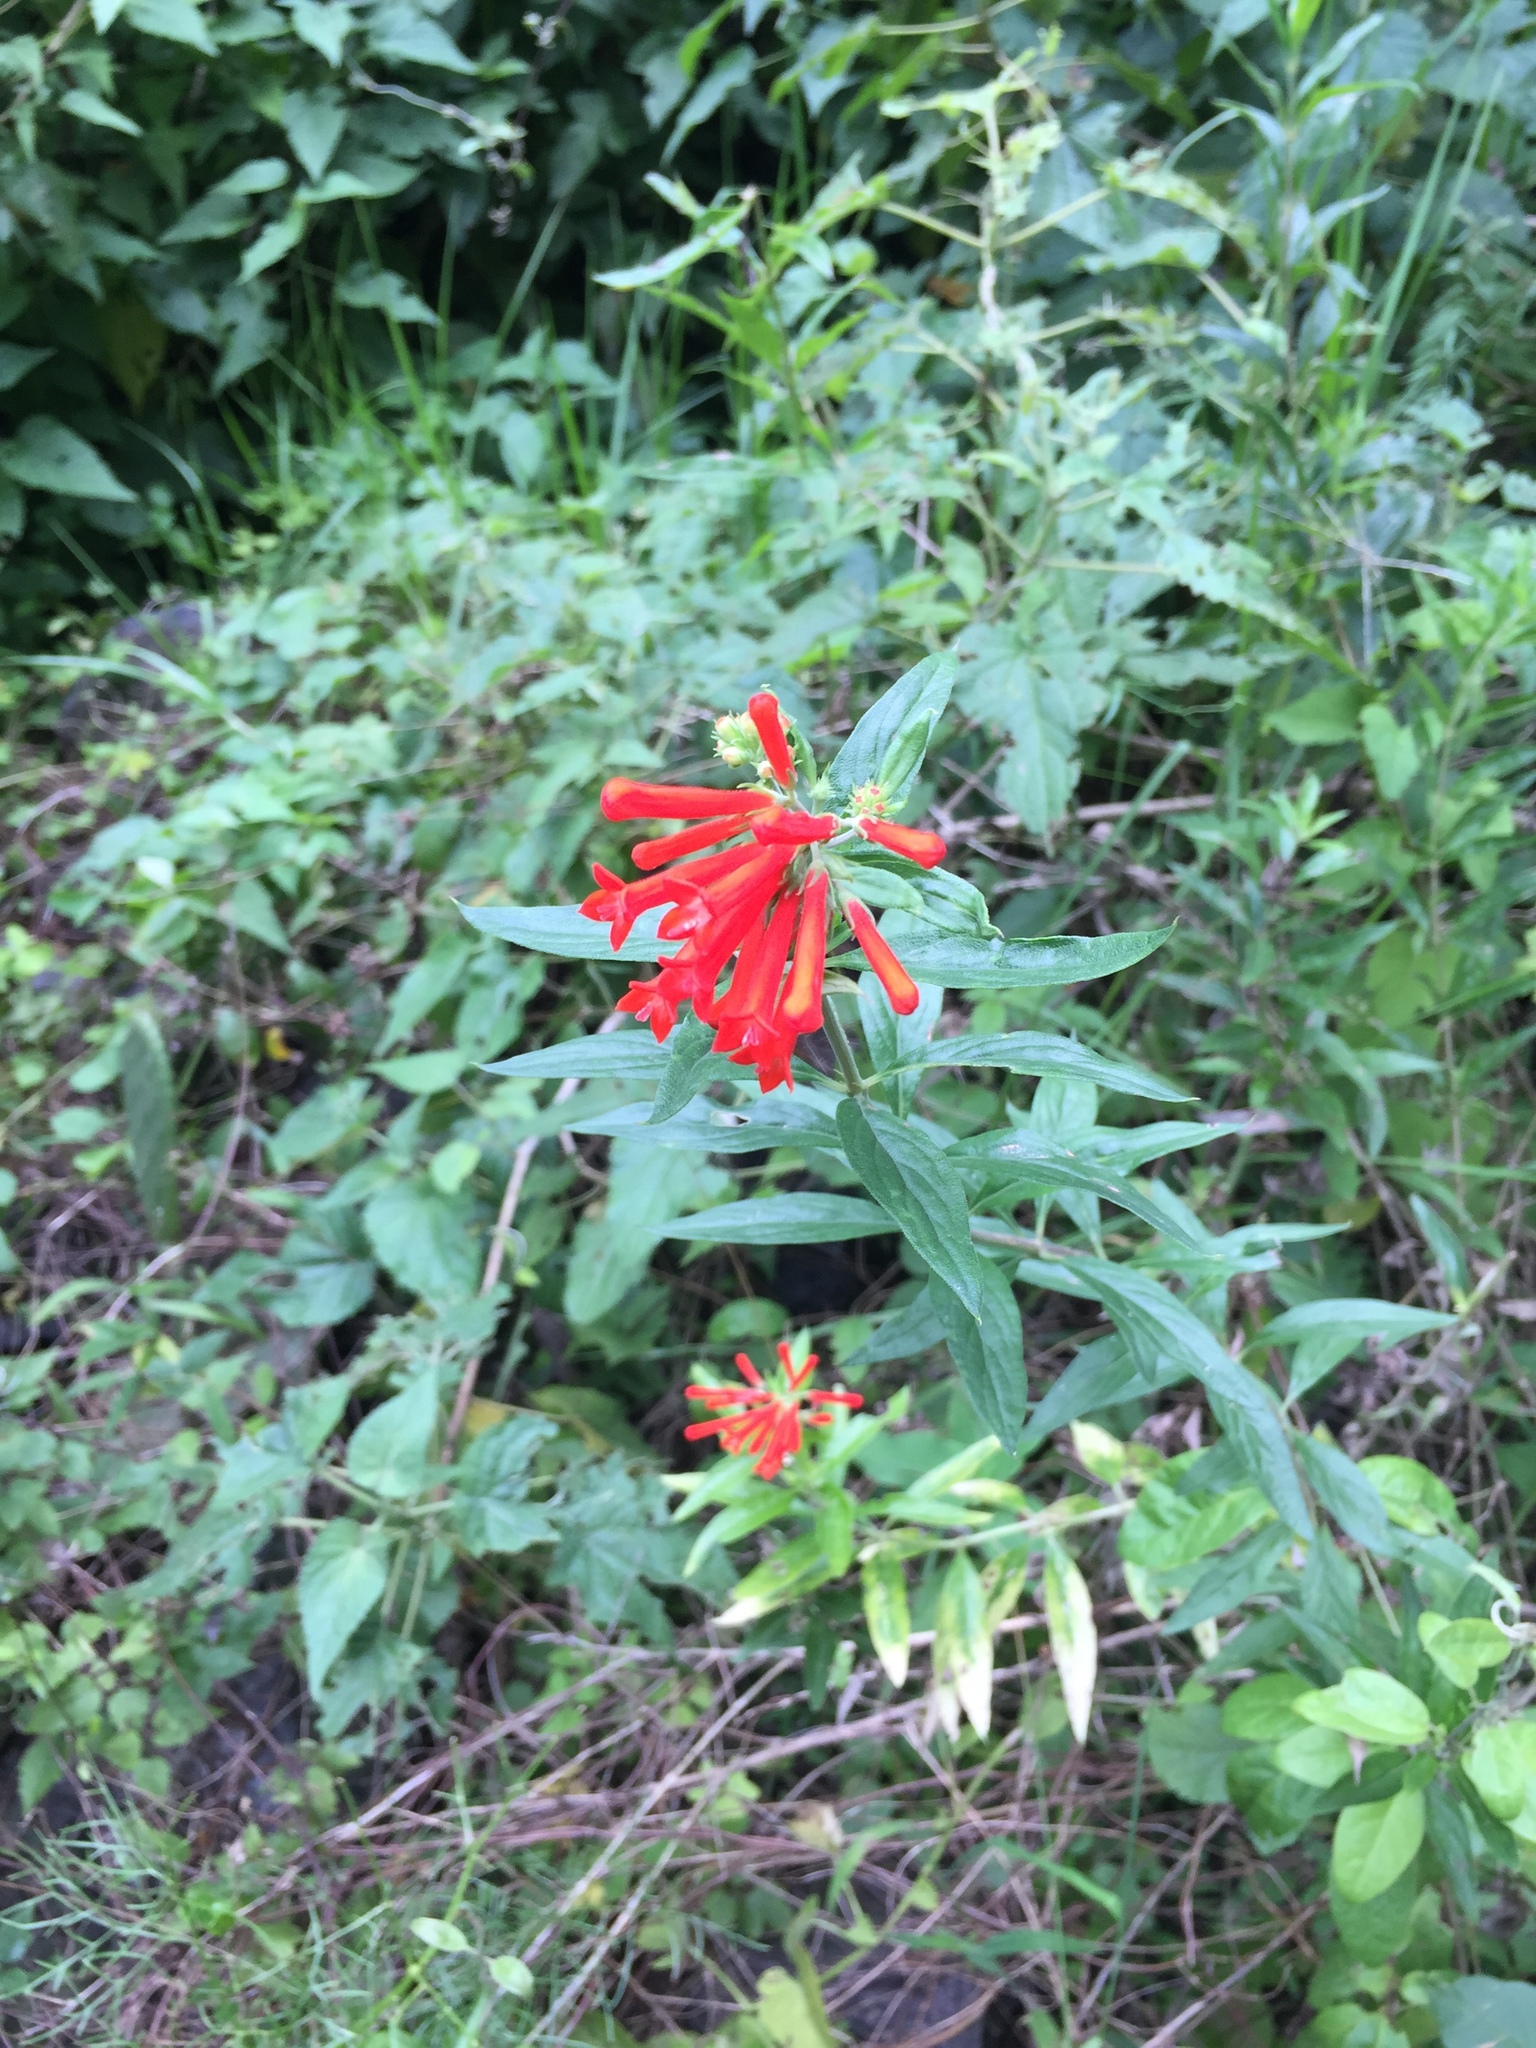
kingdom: Plantae
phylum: Tracheophyta
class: Magnoliopsida
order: Gentianales
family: Rubiaceae
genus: Bouvardia
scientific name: Bouvardia ternifolia
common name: Scarlet bouvardia
